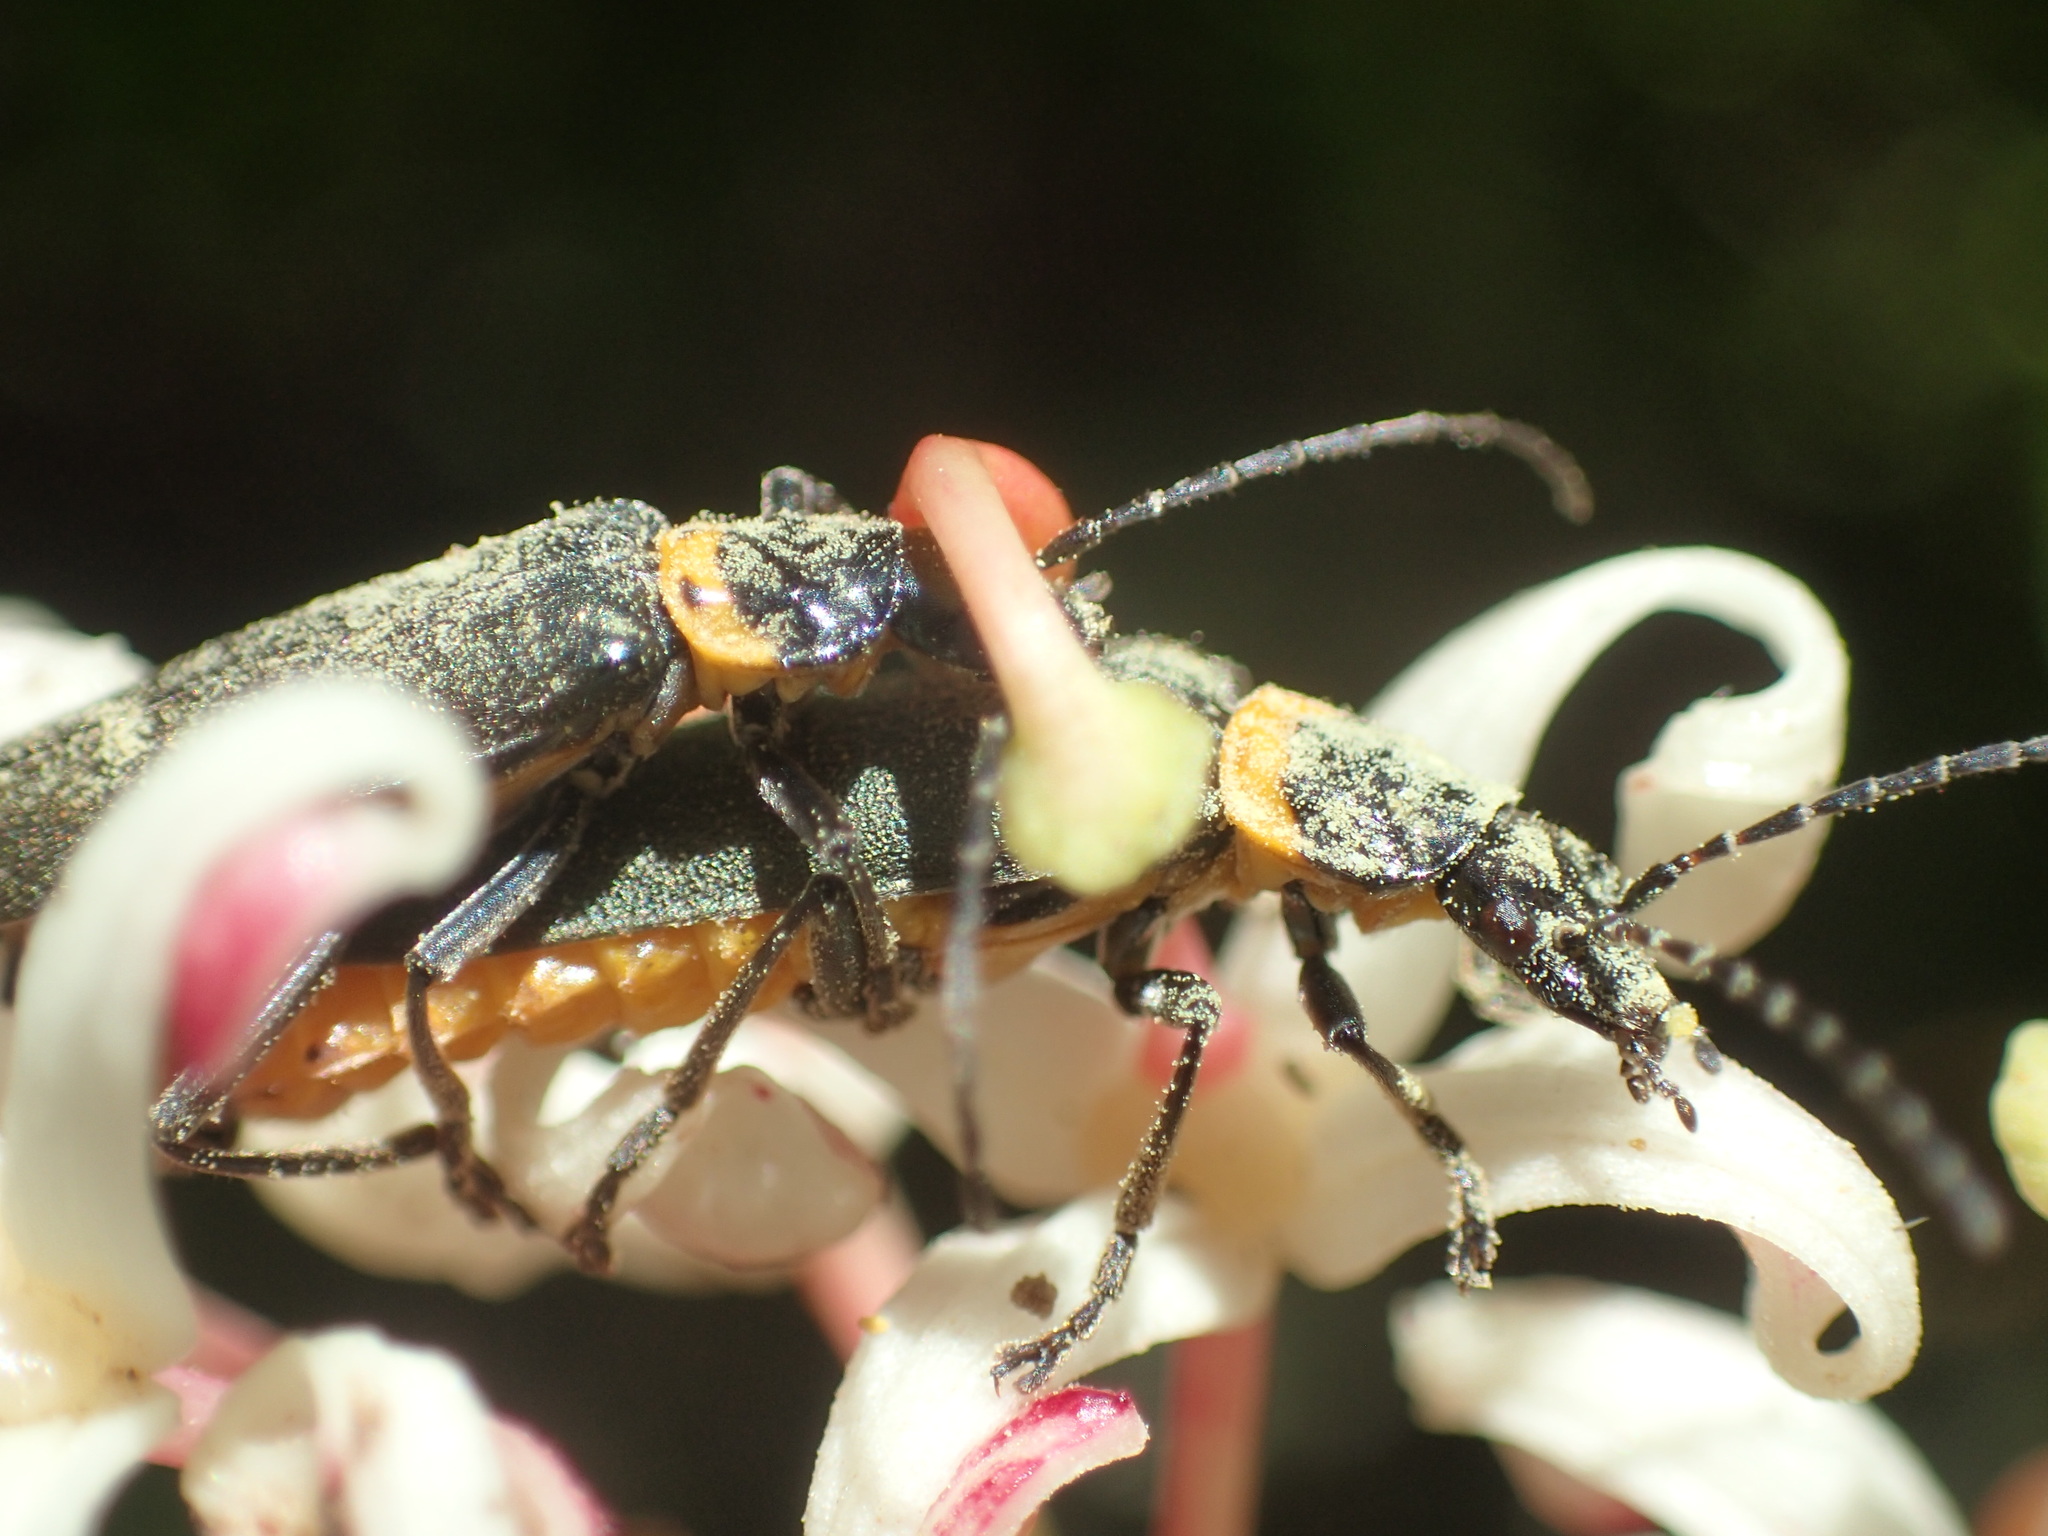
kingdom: Animalia
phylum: Arthropoda
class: Insecta
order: Coleoptera
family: Cantharidae
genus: Chauliognathus
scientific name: Chauliognathus
